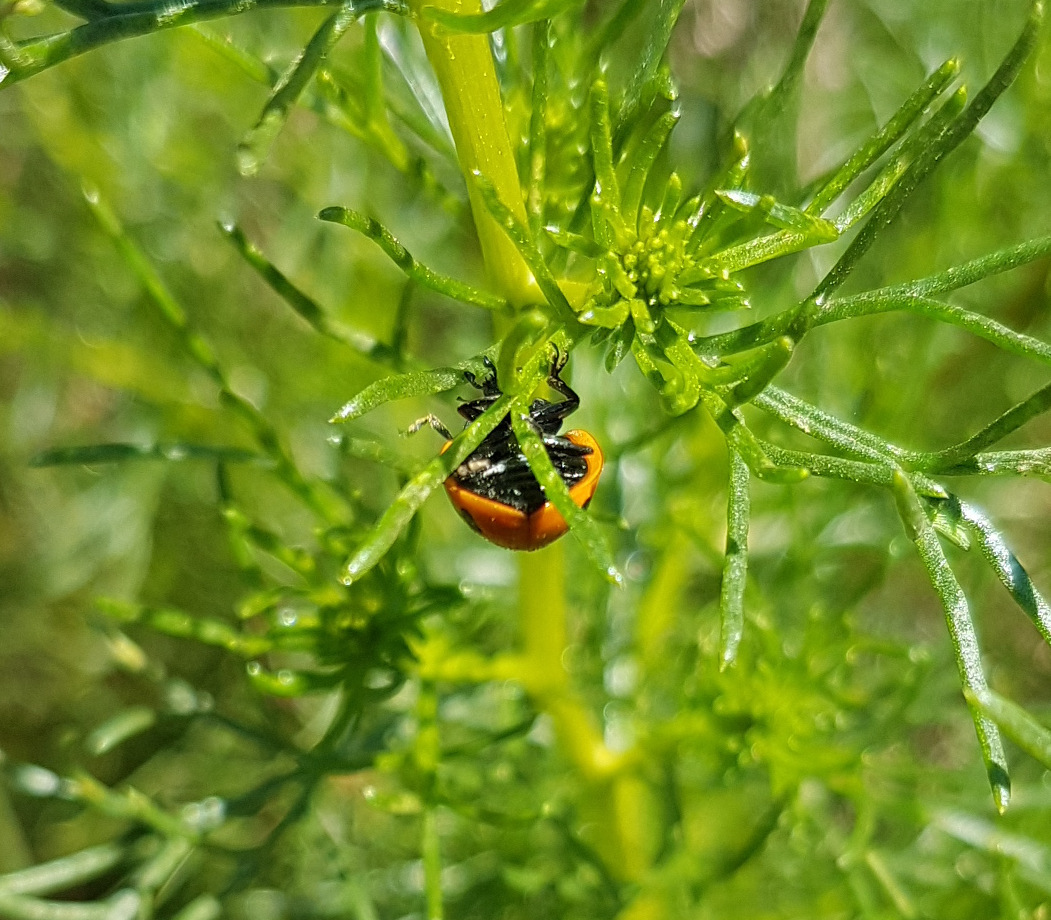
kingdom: Animalia
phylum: Arthropoda
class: Insecta
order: Coleoptera
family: Coccinellidae
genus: Coccinella
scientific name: Coccinella septempunctata
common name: Sevenspotted lady beetle
